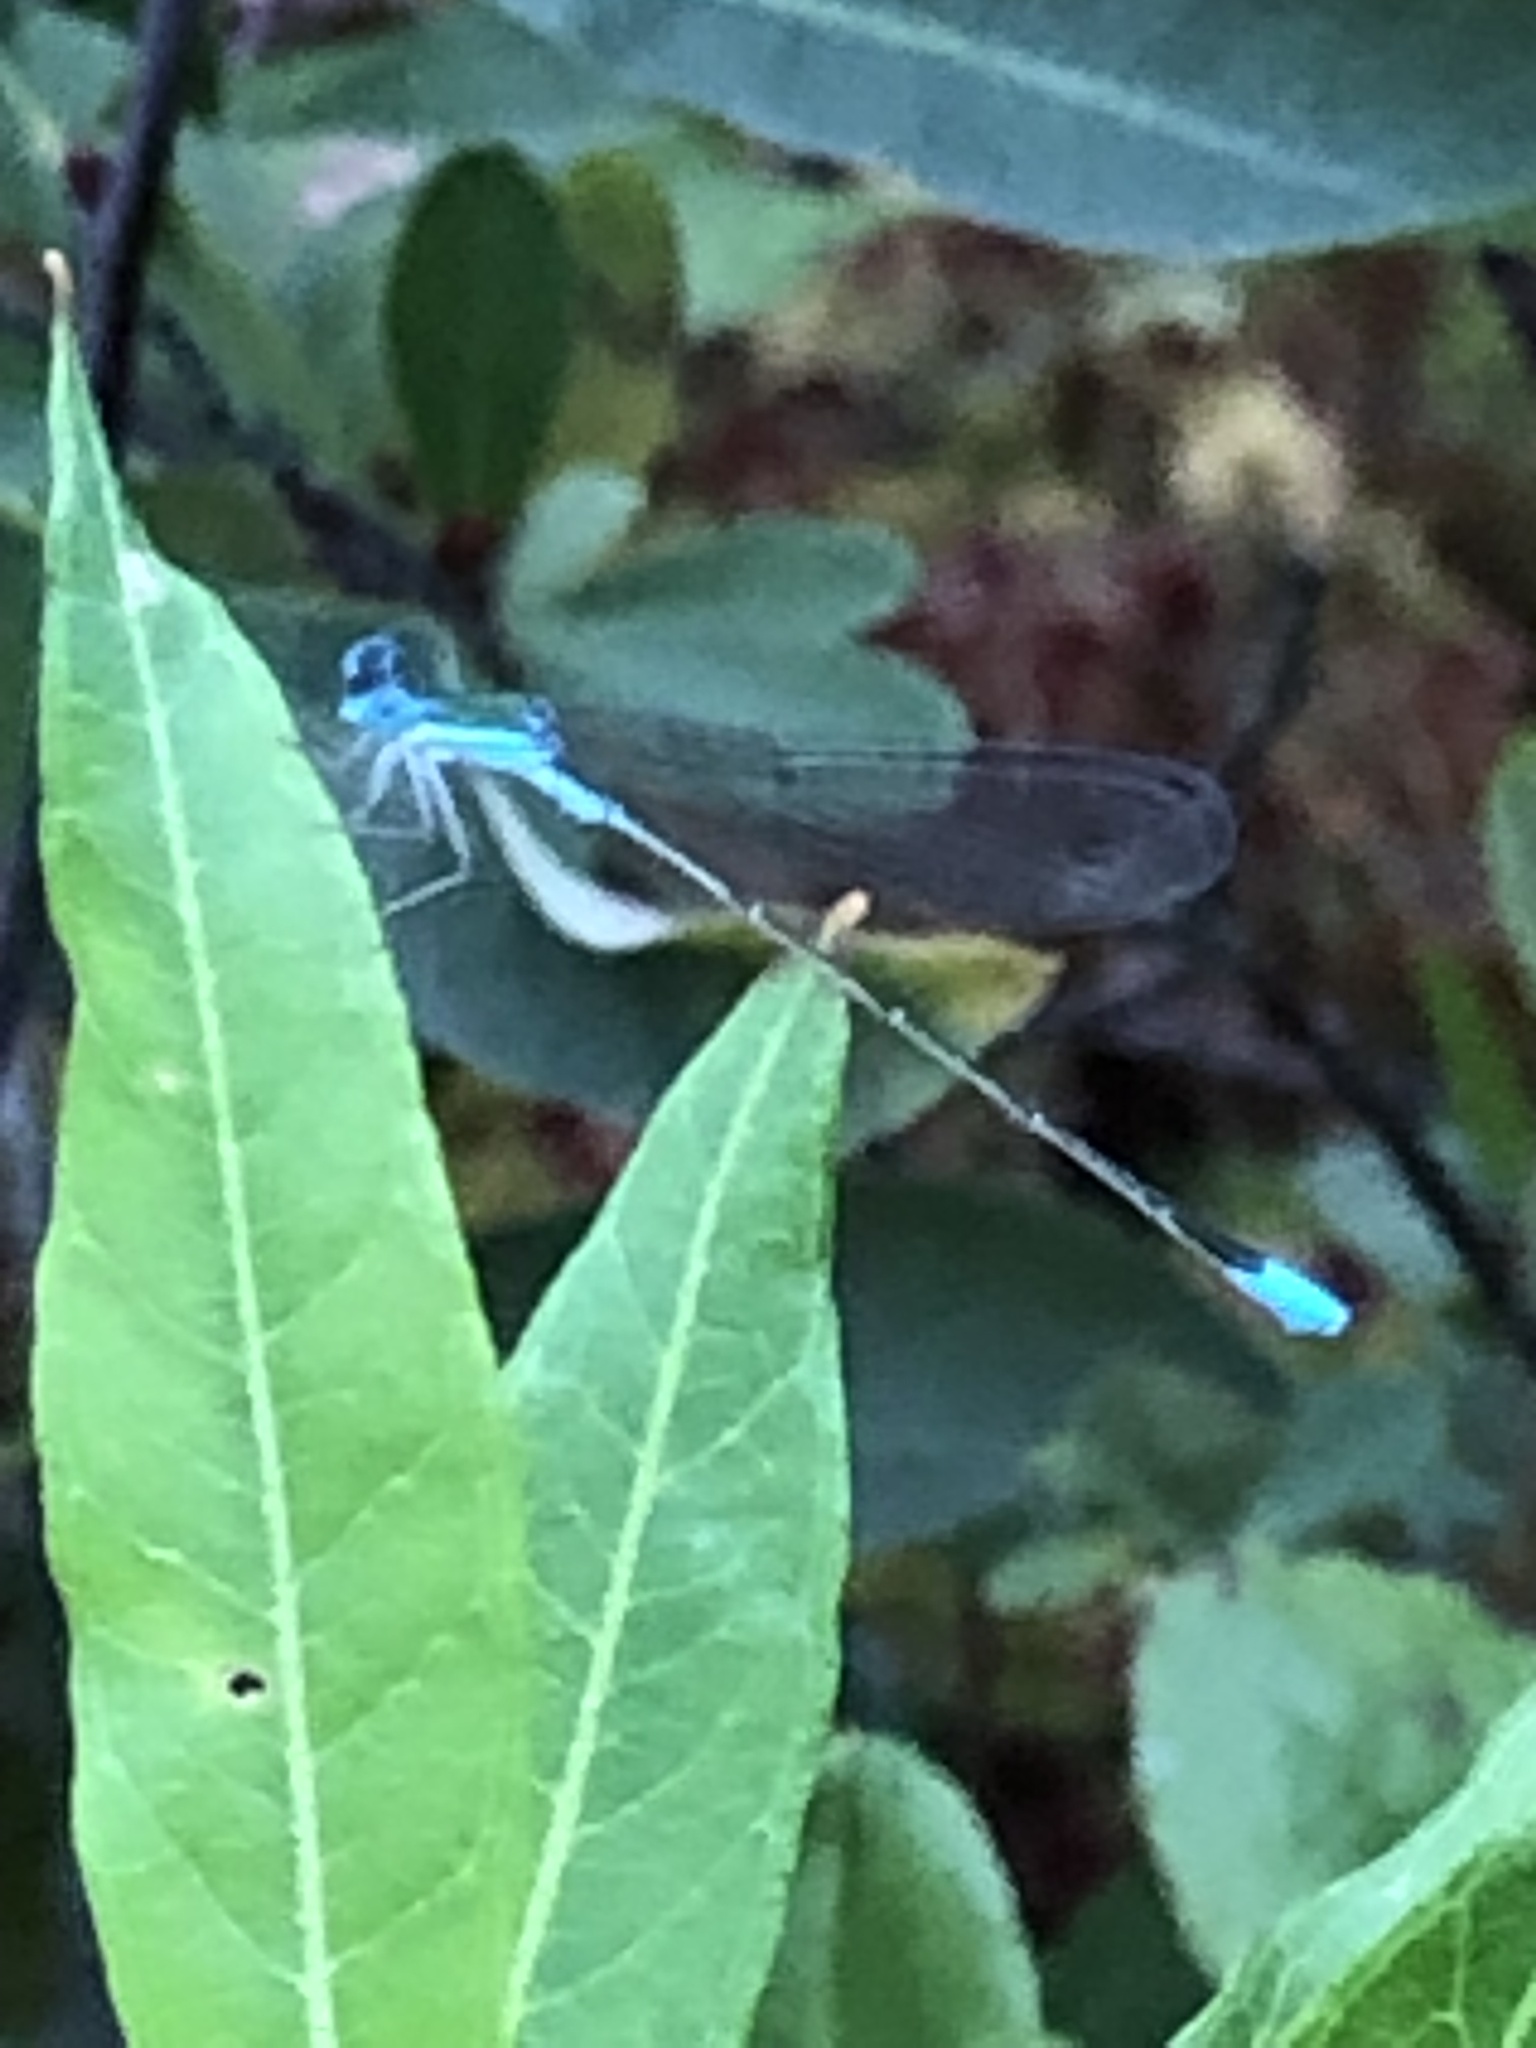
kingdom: Animalia
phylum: Arthropoda
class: Insecta
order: Odonata
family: Coenagrionidae
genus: Nehalennia
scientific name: Nehalennia gracilis
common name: Sphagnum sprite
